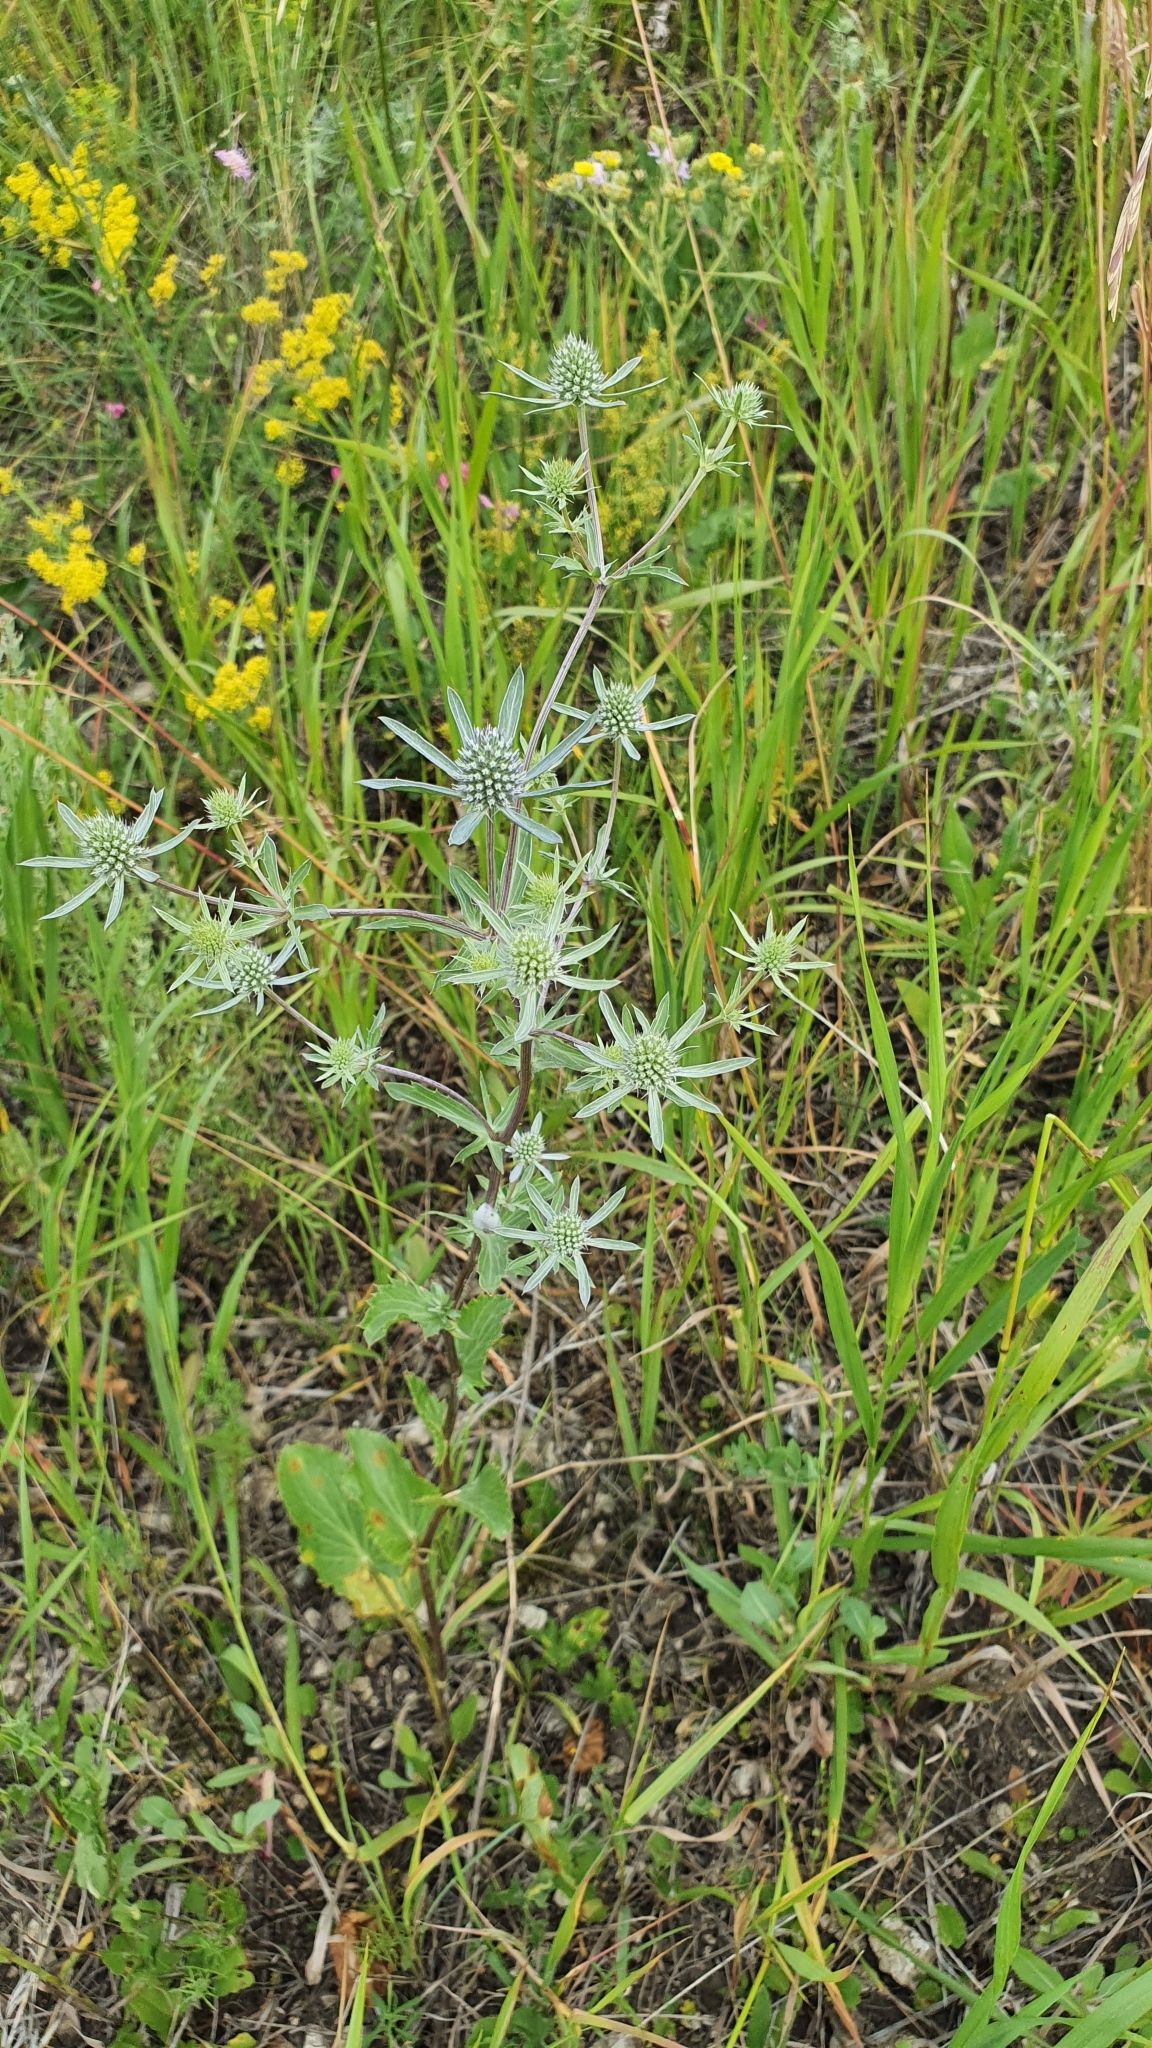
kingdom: Plantae
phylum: Tracheophyta
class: Magnoliopsida
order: Apiales
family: Apiaceae
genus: Eryngium
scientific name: Eryngium planum
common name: Blue eryngo
